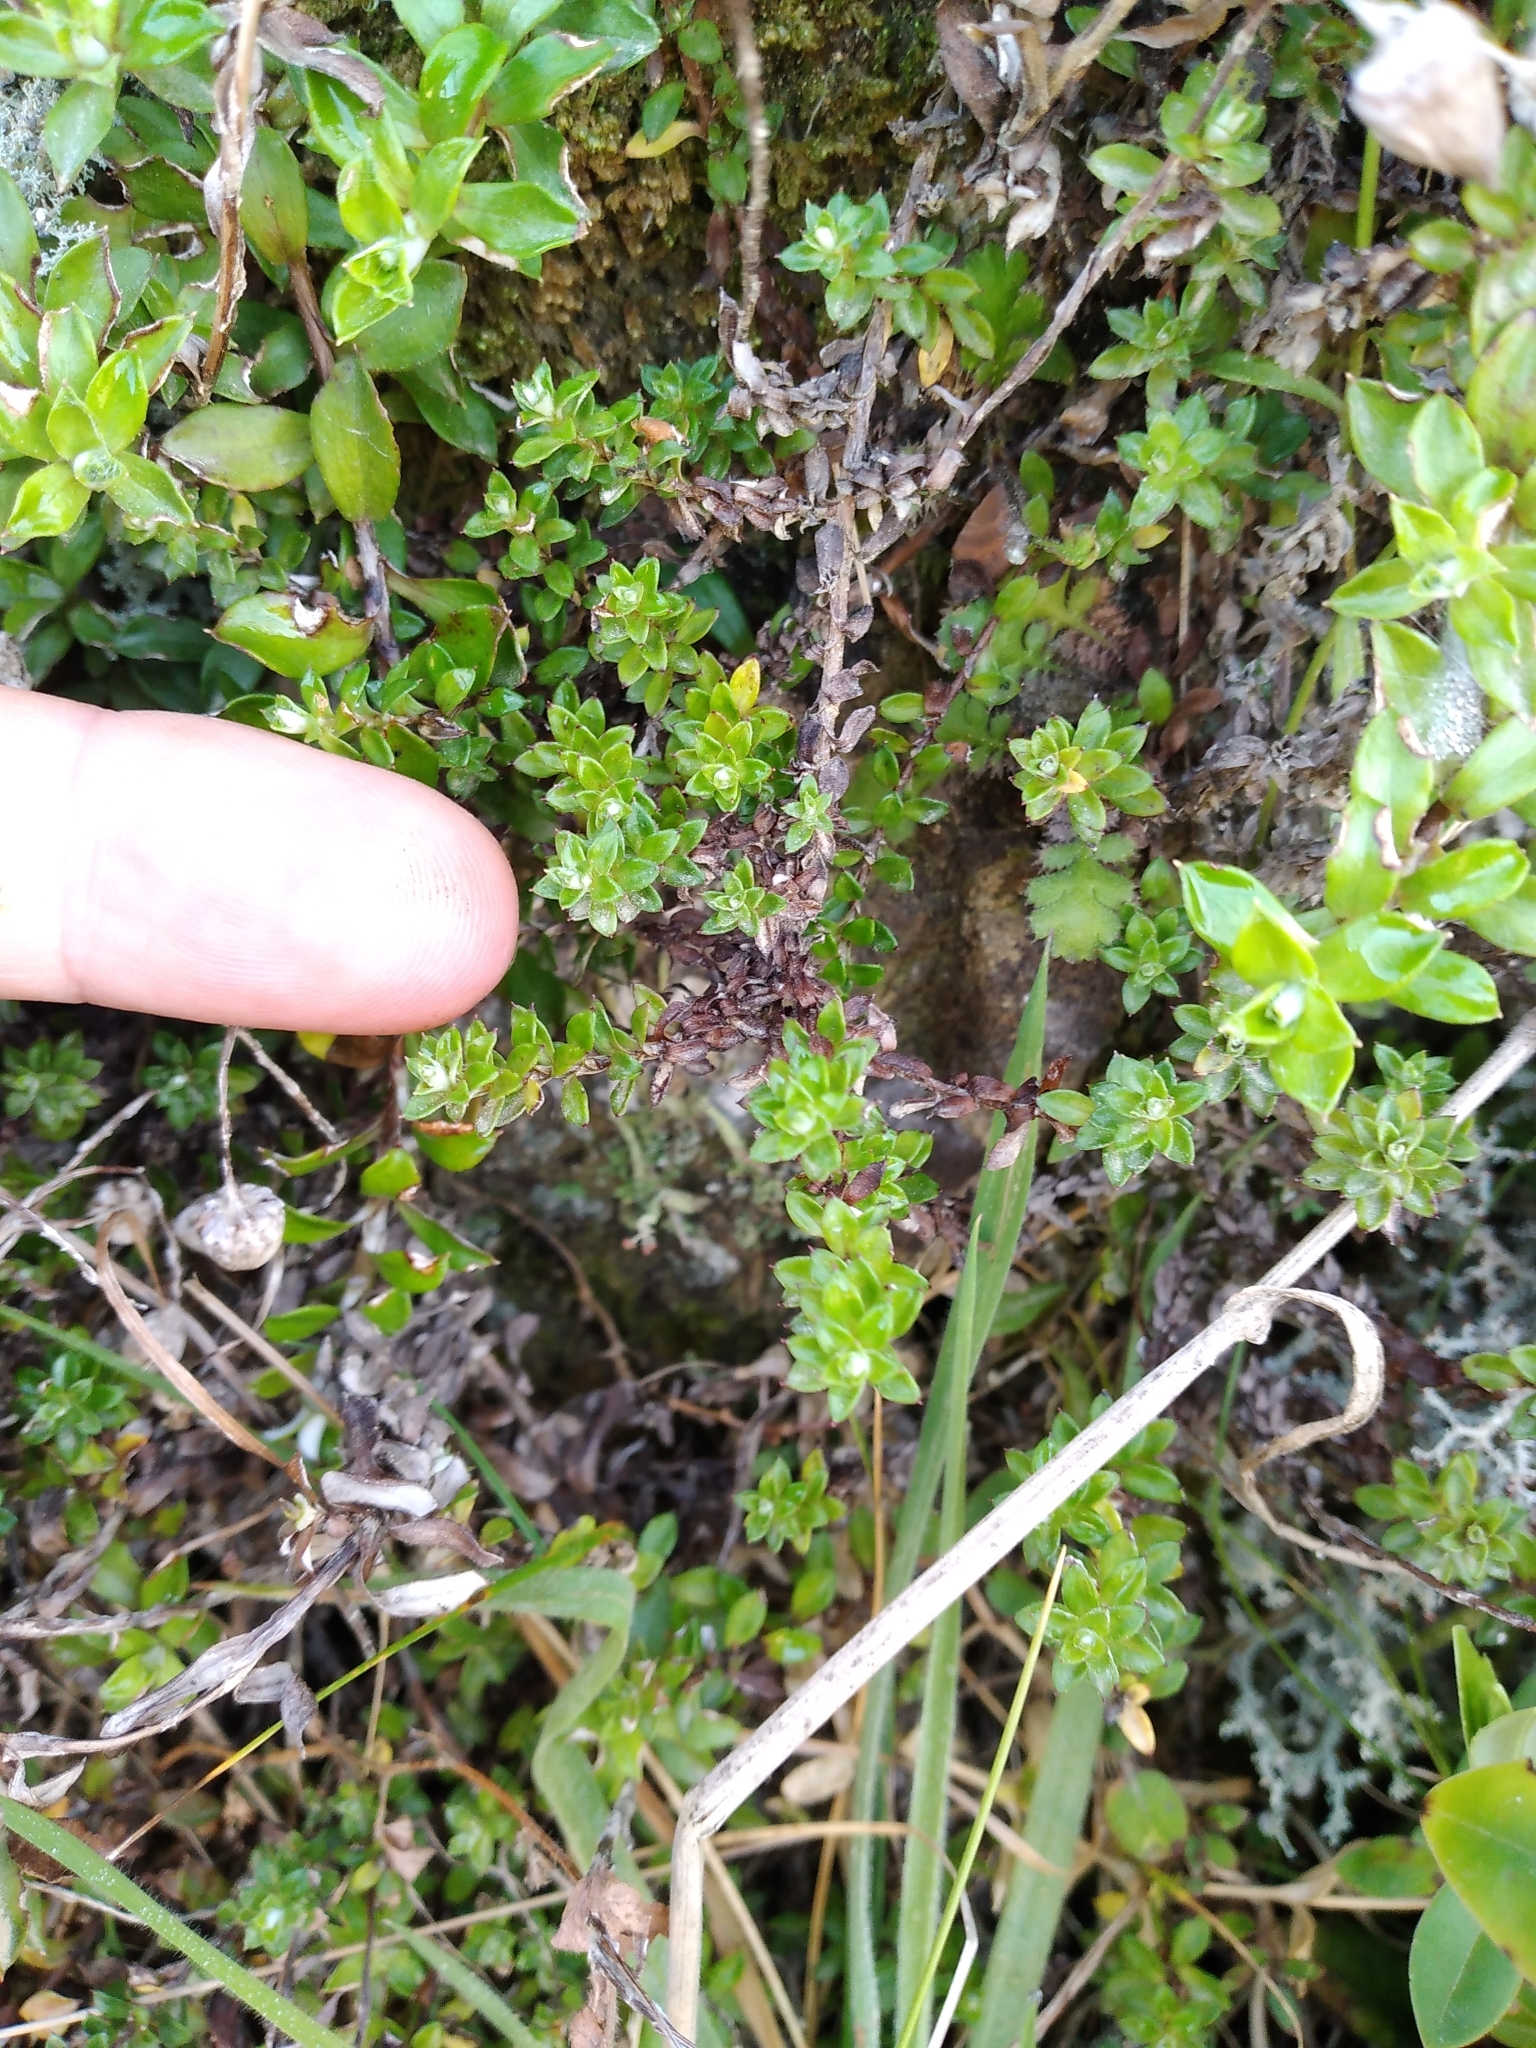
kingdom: Plantae
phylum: Tracheophyta
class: Magnoliopsida
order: Asterales
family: Asteraceae
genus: Anaphalioides
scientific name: Anaphalioides bellidioides
